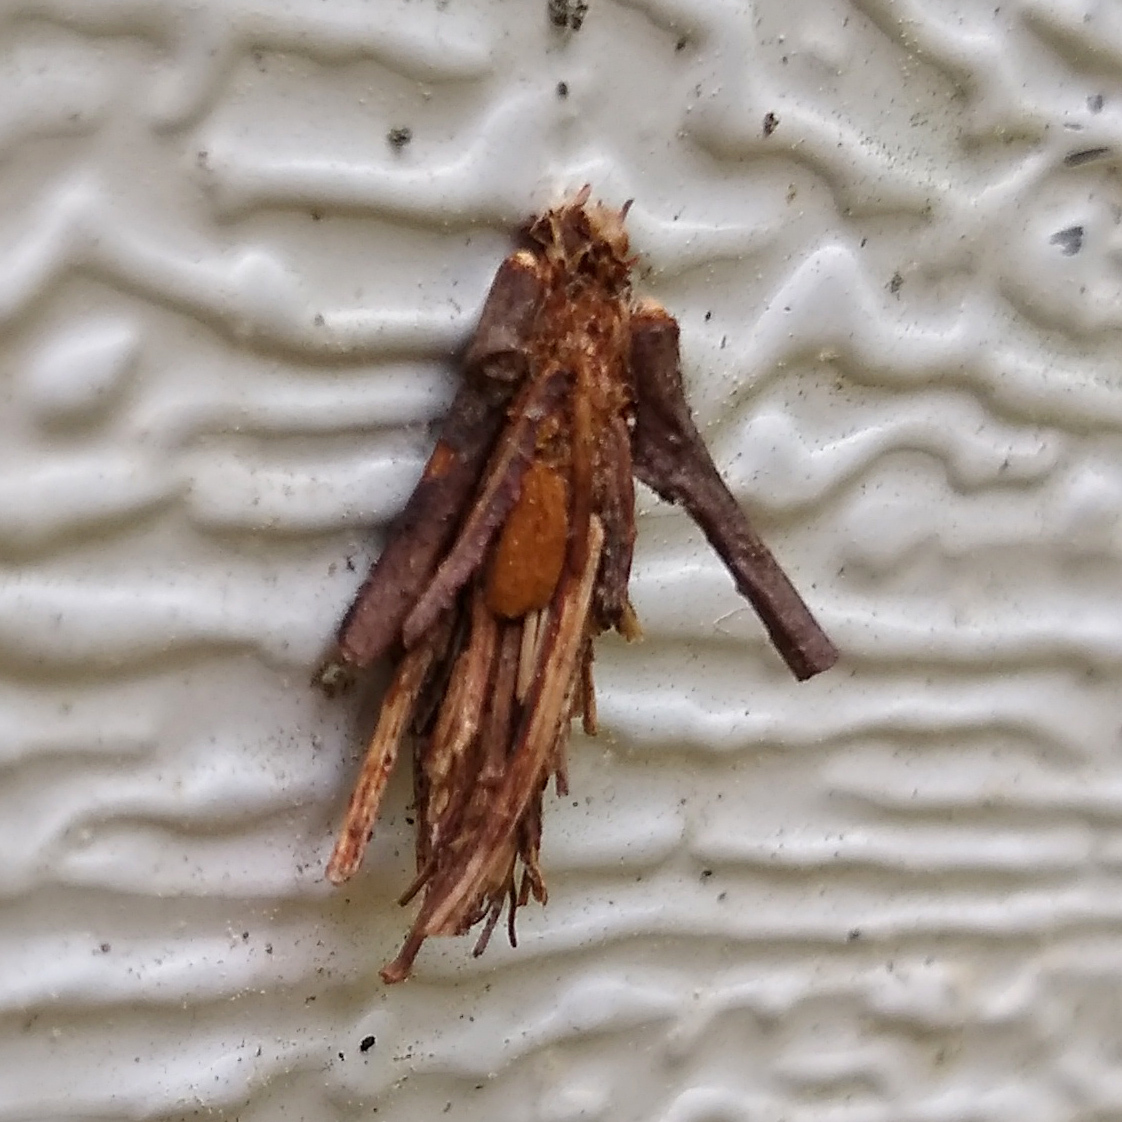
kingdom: Animalia
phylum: Arthropoda
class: Insecta
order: Lepidoptera
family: Psychidae
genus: Psyche
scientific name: Psyche casta
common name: Common sweep
